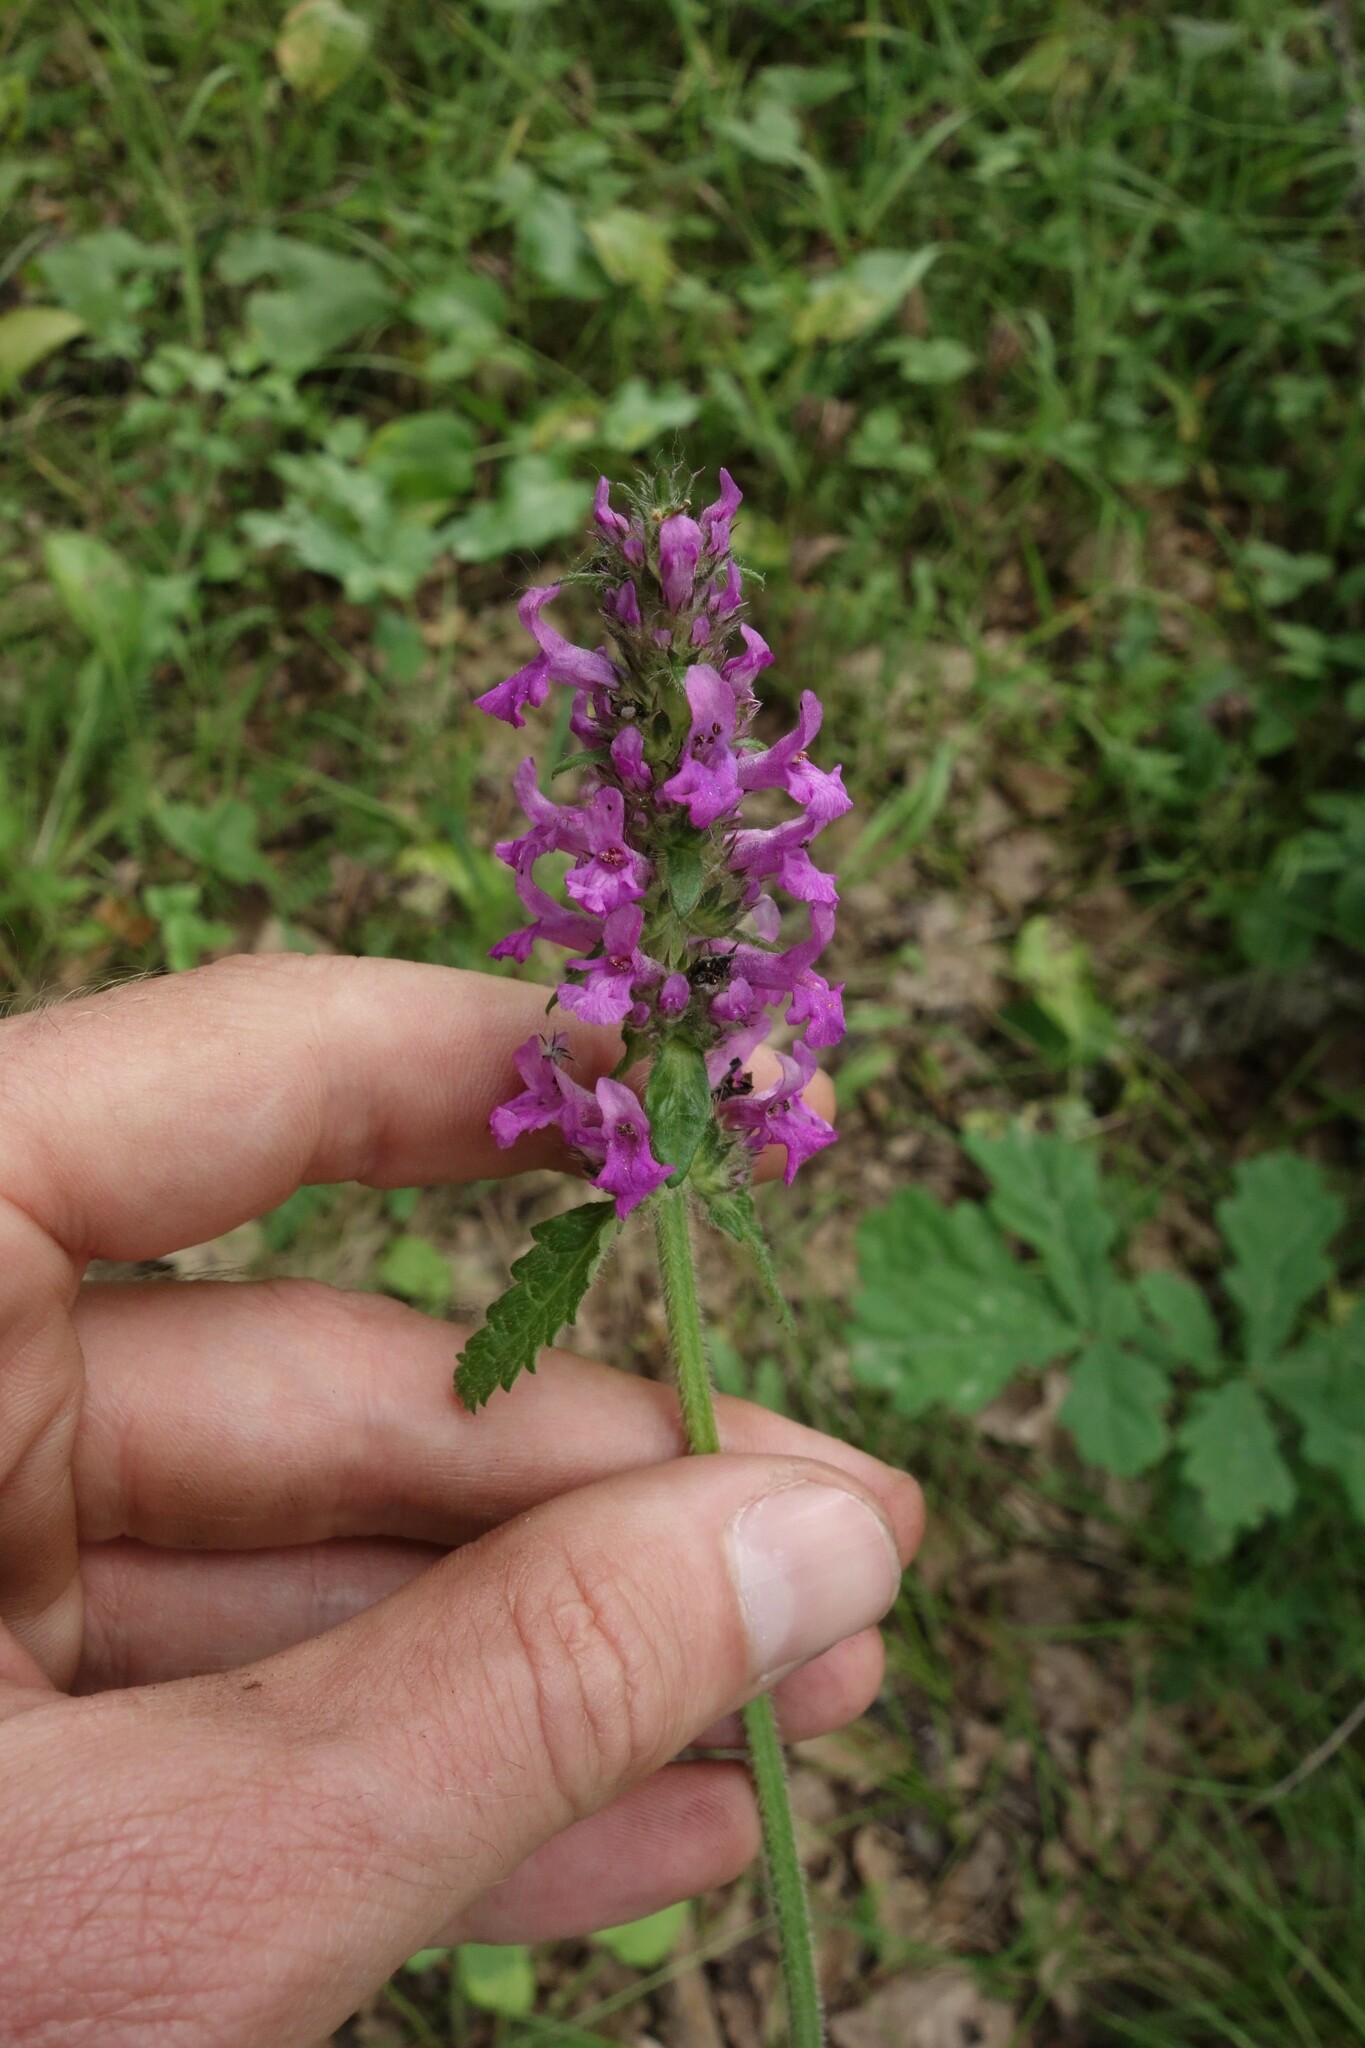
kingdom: Plantae
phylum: Tracheophyta
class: Magnoliopsida
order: Lamiales
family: Lamiaceae
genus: Betonica
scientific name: Betonica officinalis
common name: Bishop's-wort
